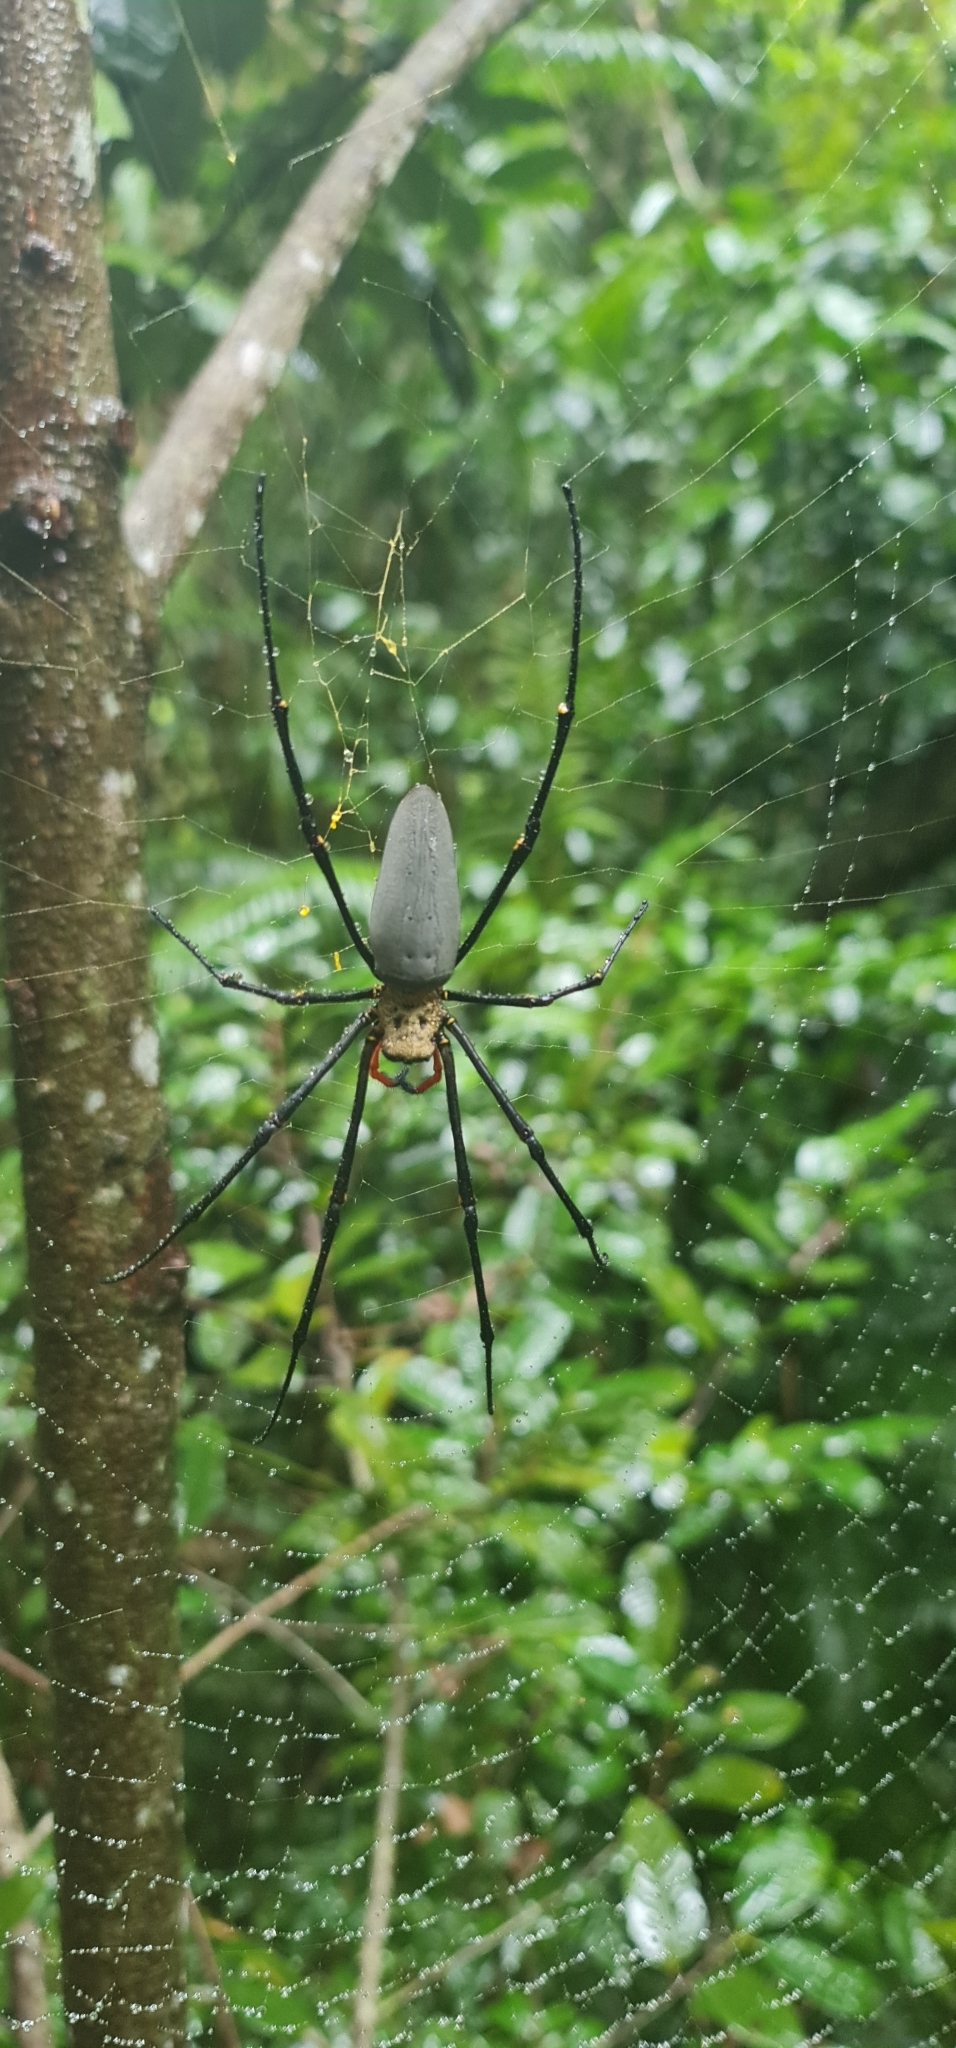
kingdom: Animalia
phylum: Arthropoda
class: Arachnida
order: Araneae
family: Araneidae
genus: Nephila
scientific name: Nephila pilipes
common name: Giant golden orb weaver
